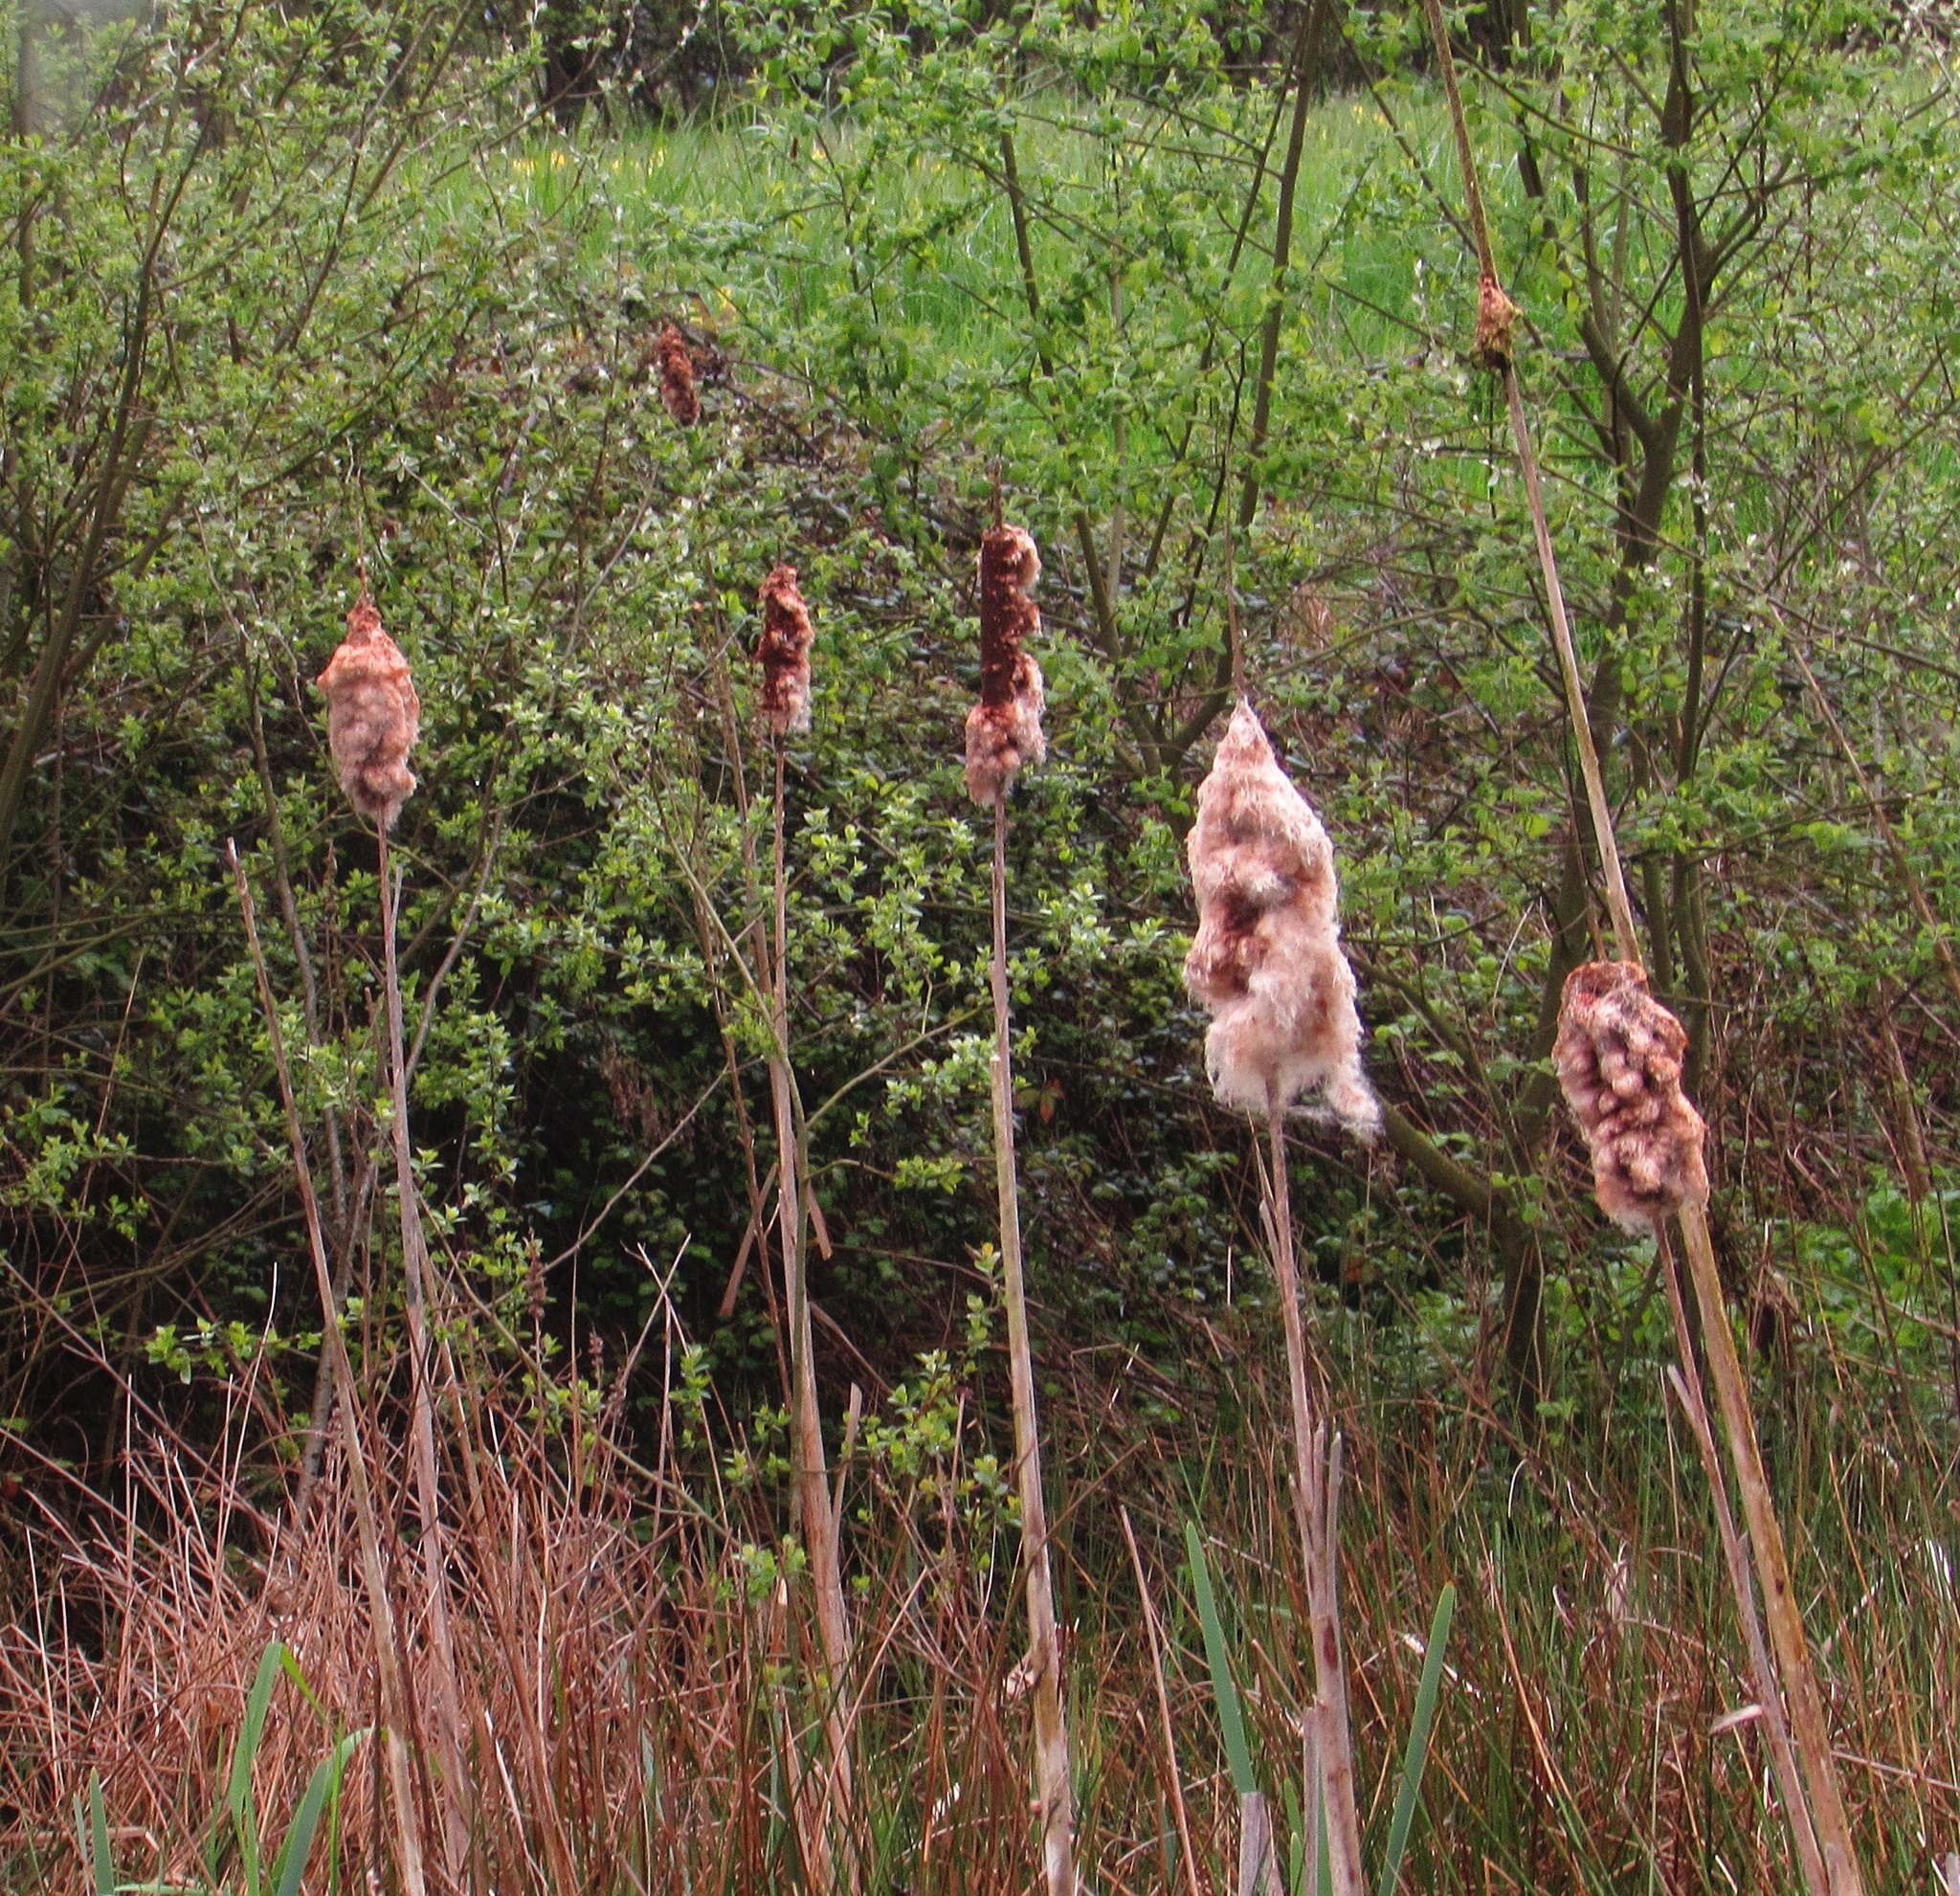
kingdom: Plantae
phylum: Tracheophyta
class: Liliopsida
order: Poales
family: Typhaceae
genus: Typha
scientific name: Typha latifolia
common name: Broadleaf cattail
